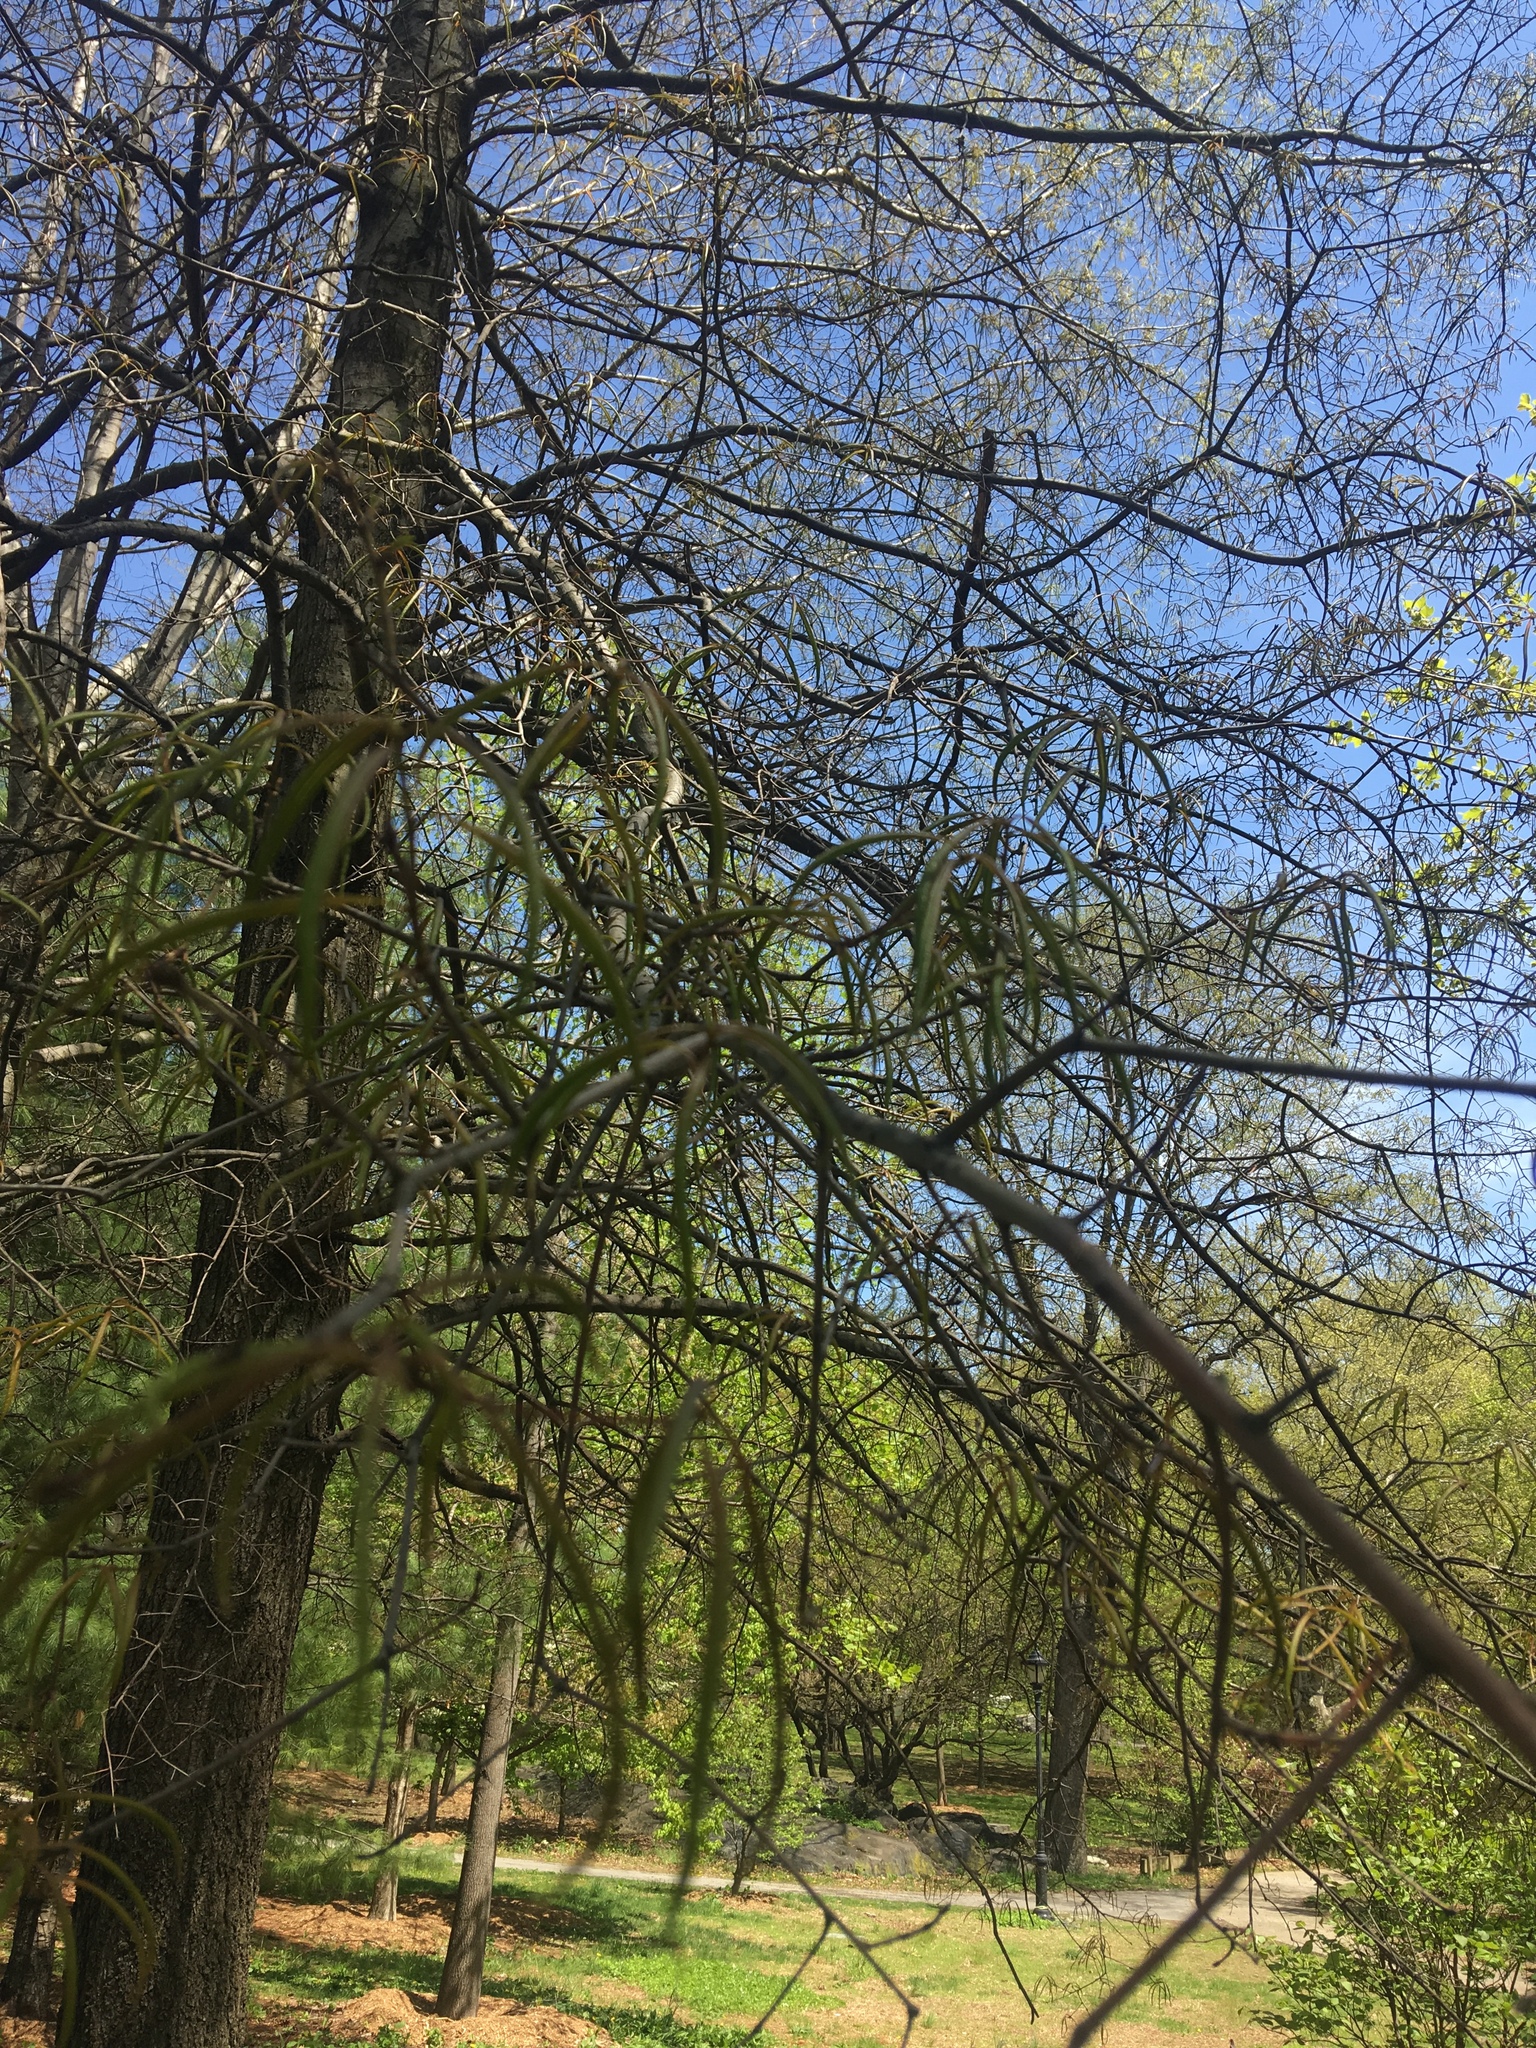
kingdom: Plantae
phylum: Tracheophyta
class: Magnoliopsida
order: Fagales
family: Fagaceae
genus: Quercus
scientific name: Quercus palustris
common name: Pin oak
